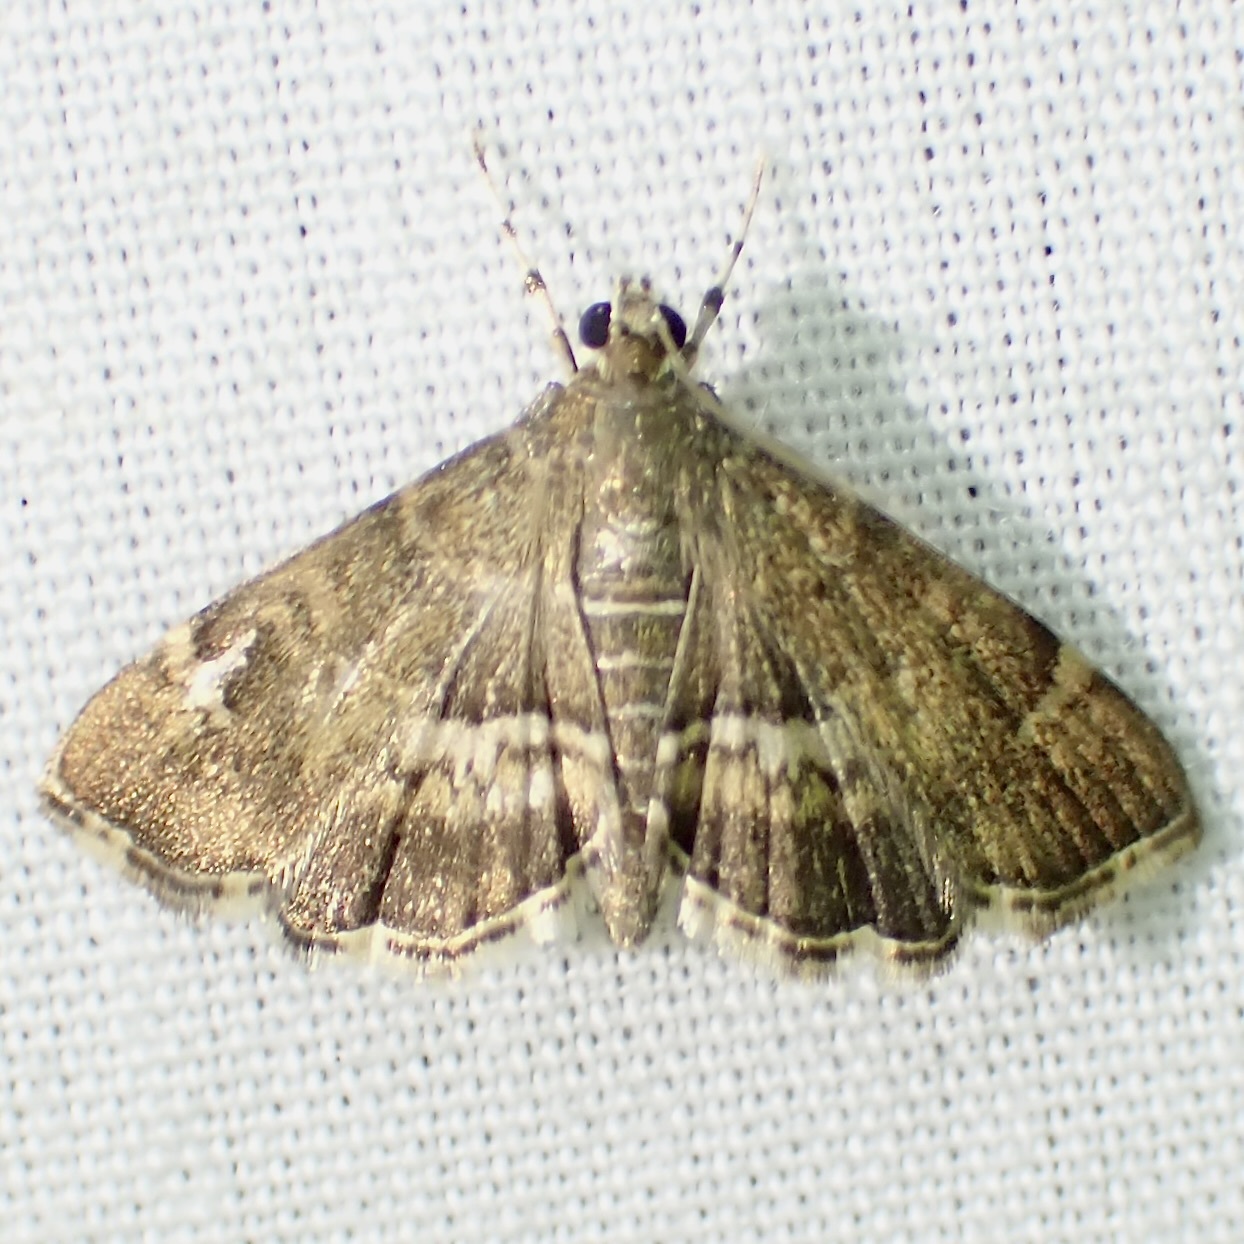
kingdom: Animalia
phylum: Arthropoda
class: Insecta
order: Lepidoptera
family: Crambidae
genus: Hymenia
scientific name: Hymenia perspectalis
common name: Spotted beet webworm
